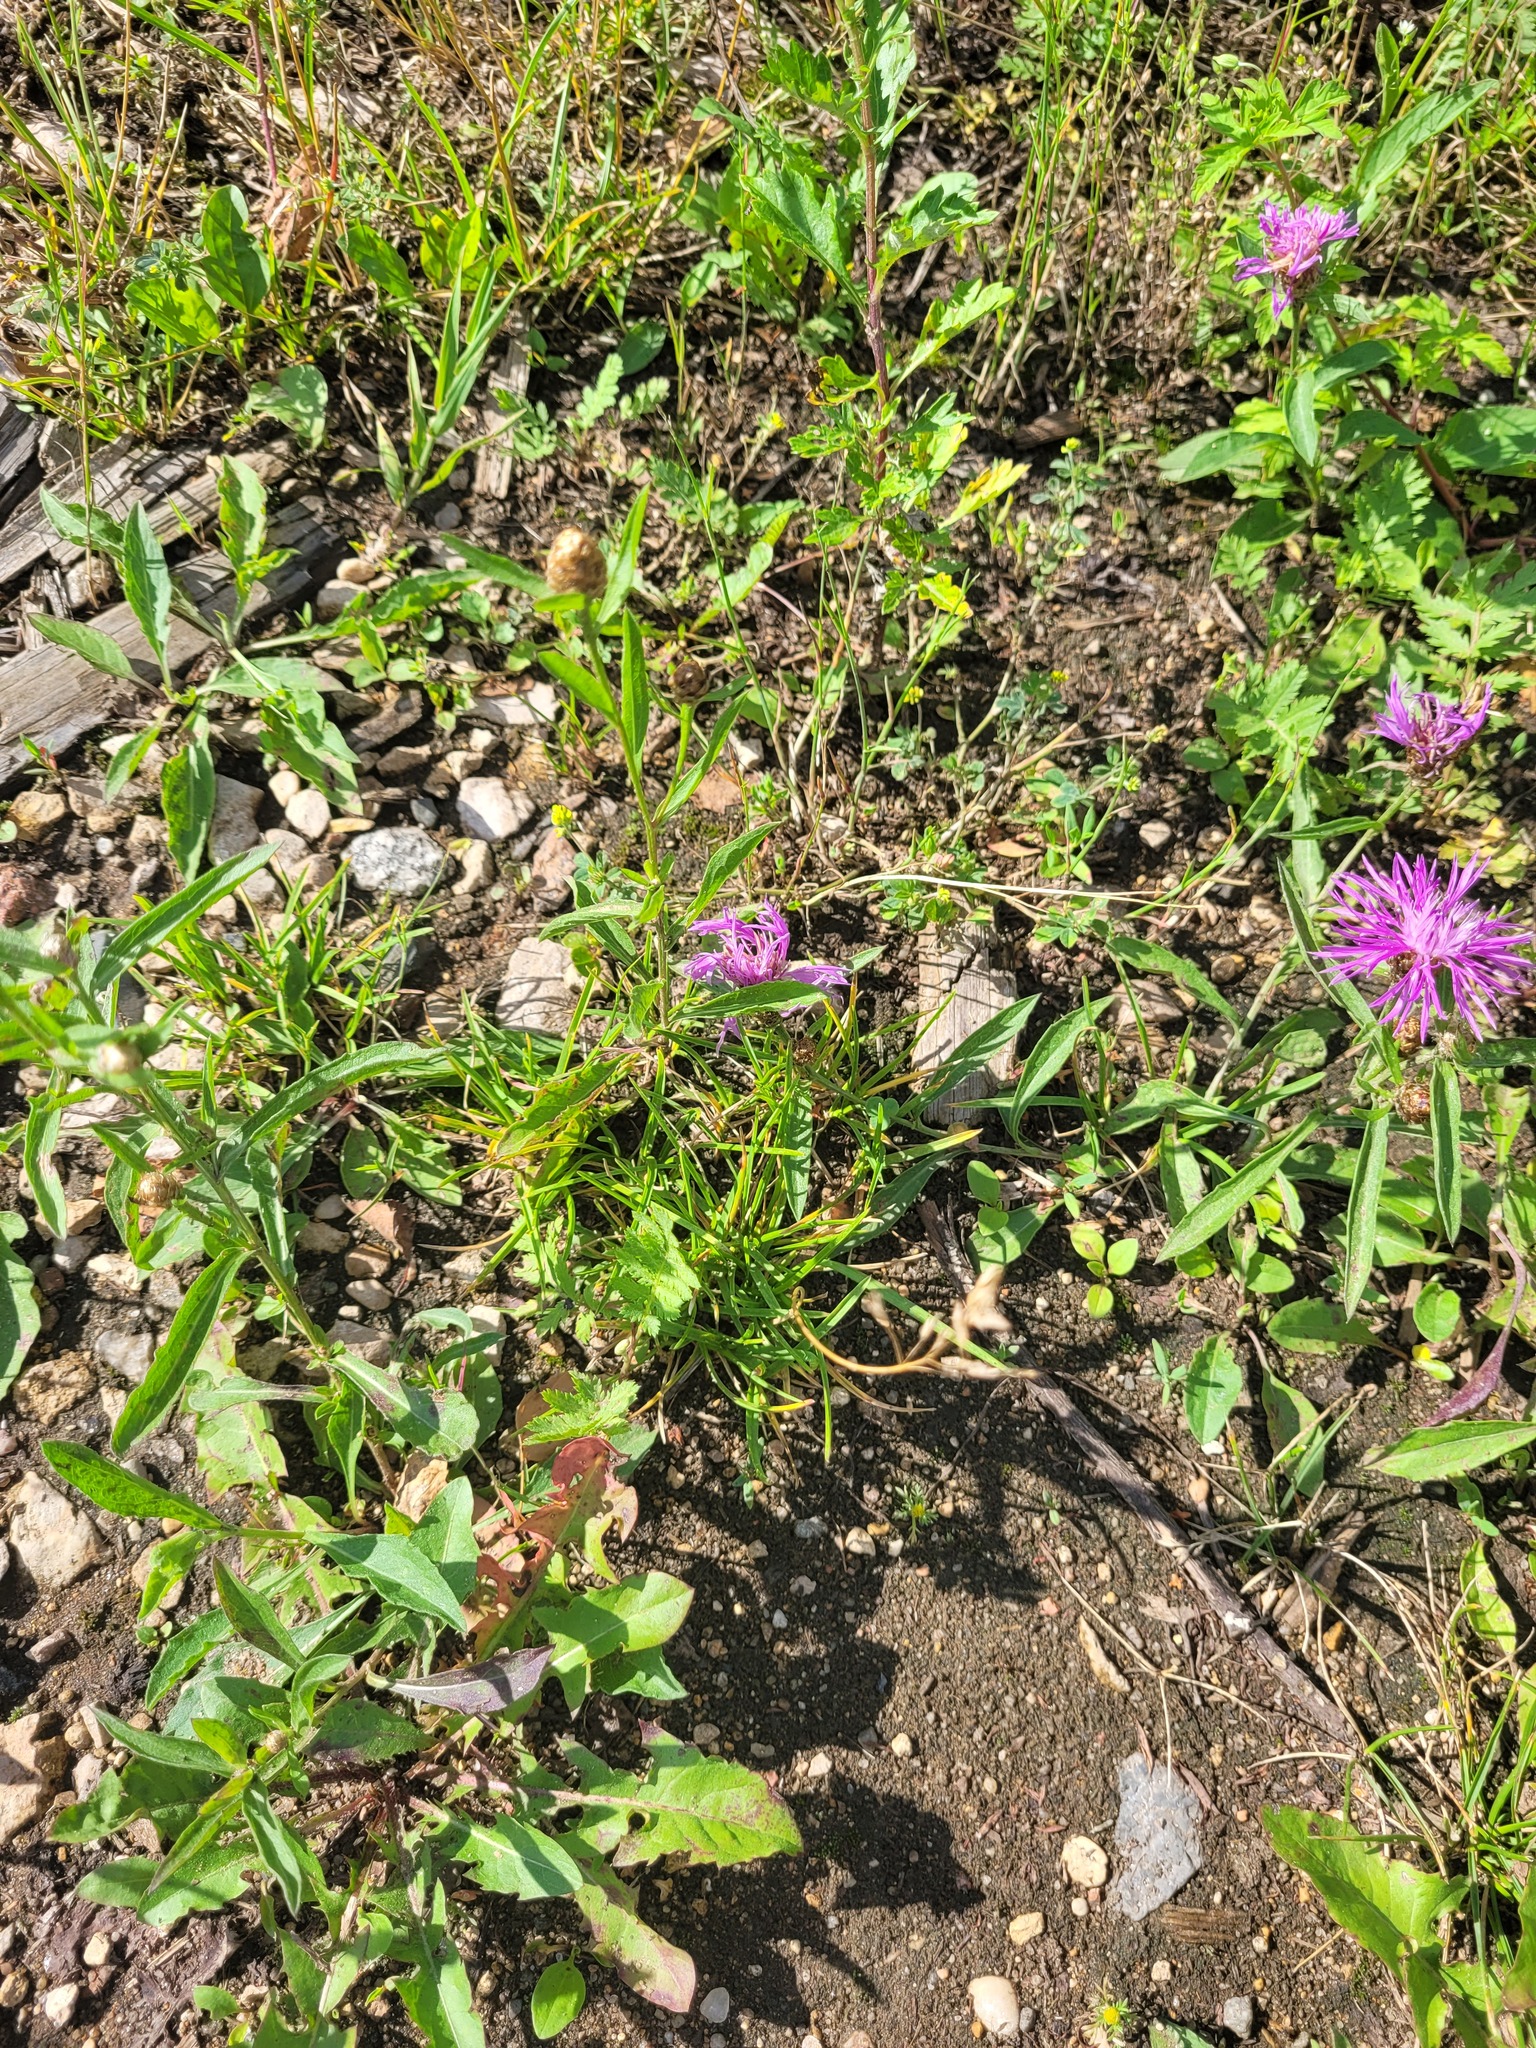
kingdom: Plantae
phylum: Tracheophyta
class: Liliopsida
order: Poales
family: Poaceae
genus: Poa
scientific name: Poa annua
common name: Annual bluegrass
